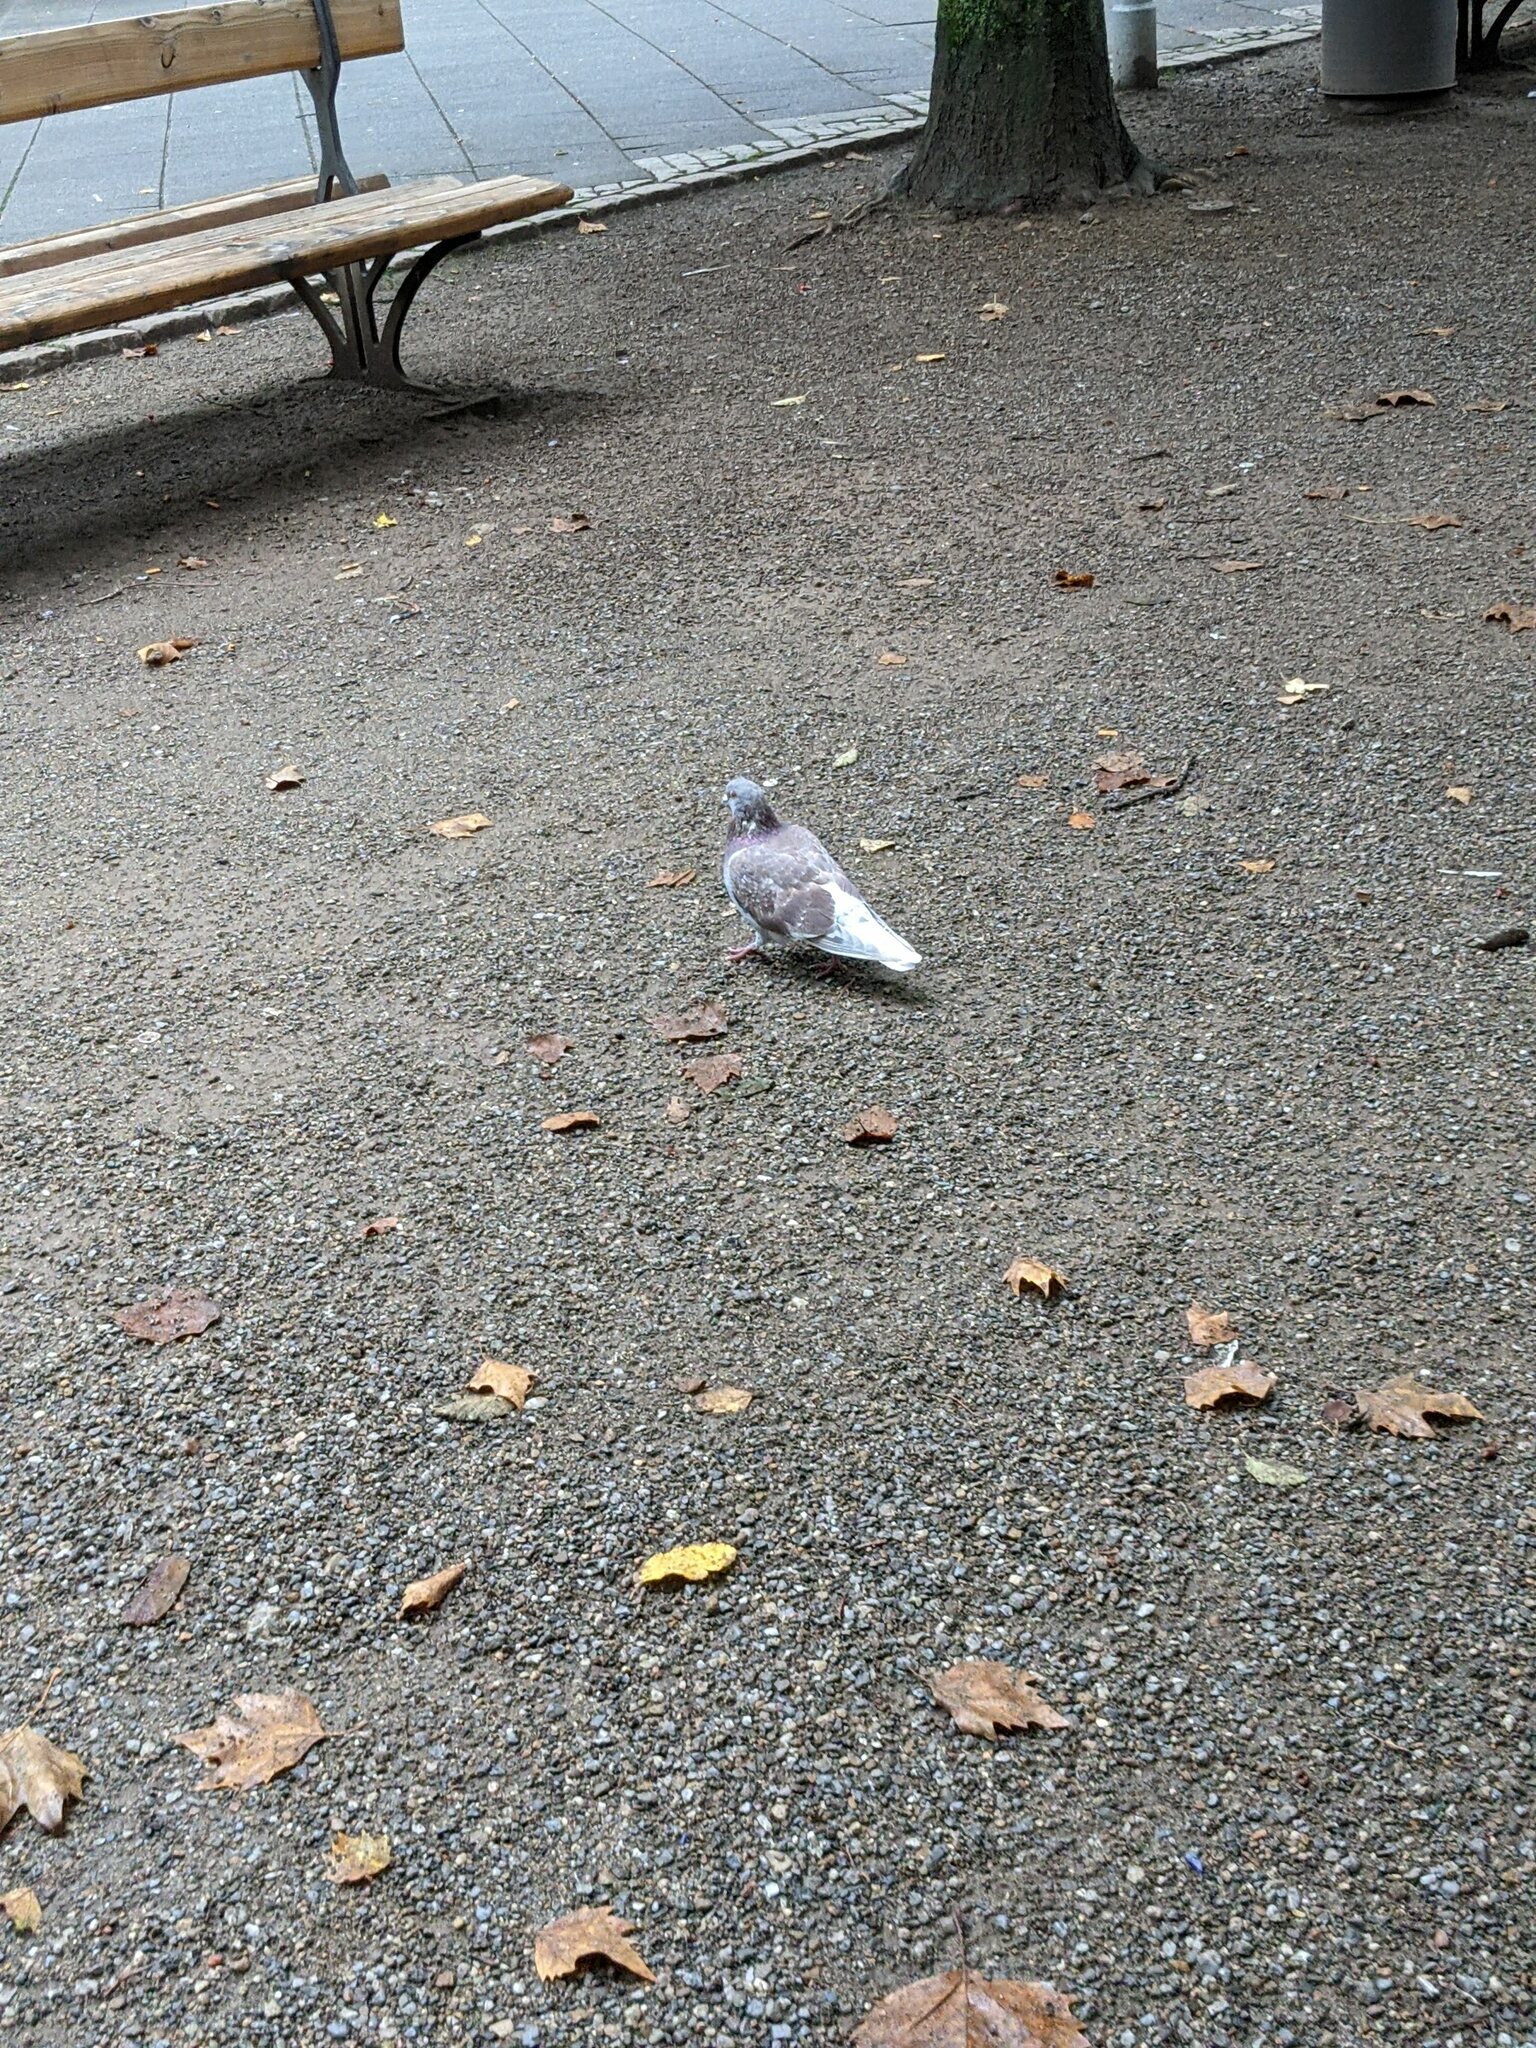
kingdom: Animalia
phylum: Chordata
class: Aves
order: Columbiformes
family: Columbidae
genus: Columba
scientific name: Columba livia
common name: Rock pigeon
